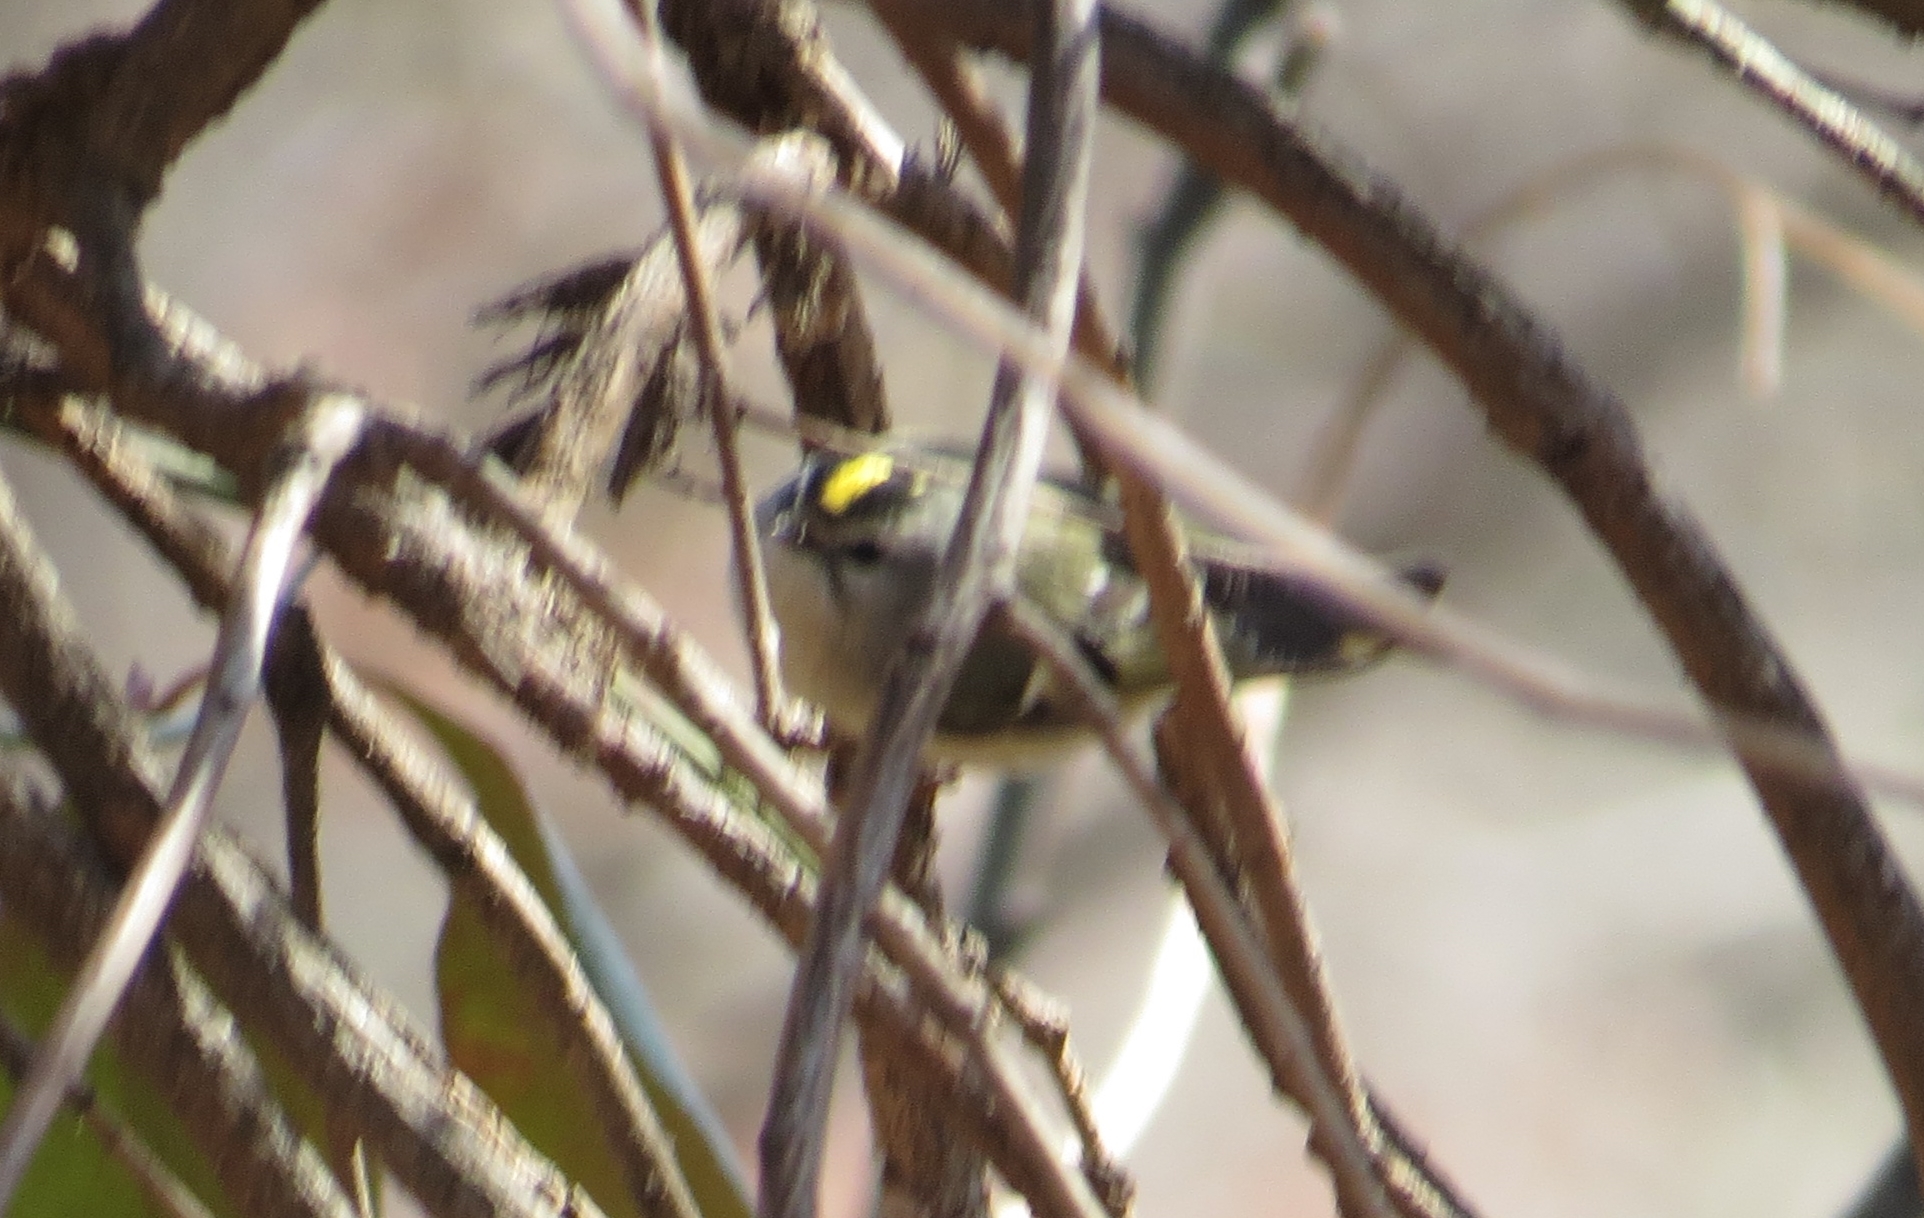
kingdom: Animalia
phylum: Chordata
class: Aves
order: Passeriformes
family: Regulidae
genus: Regulus
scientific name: Regulus satrapa
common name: Golden-crowned kinglet
